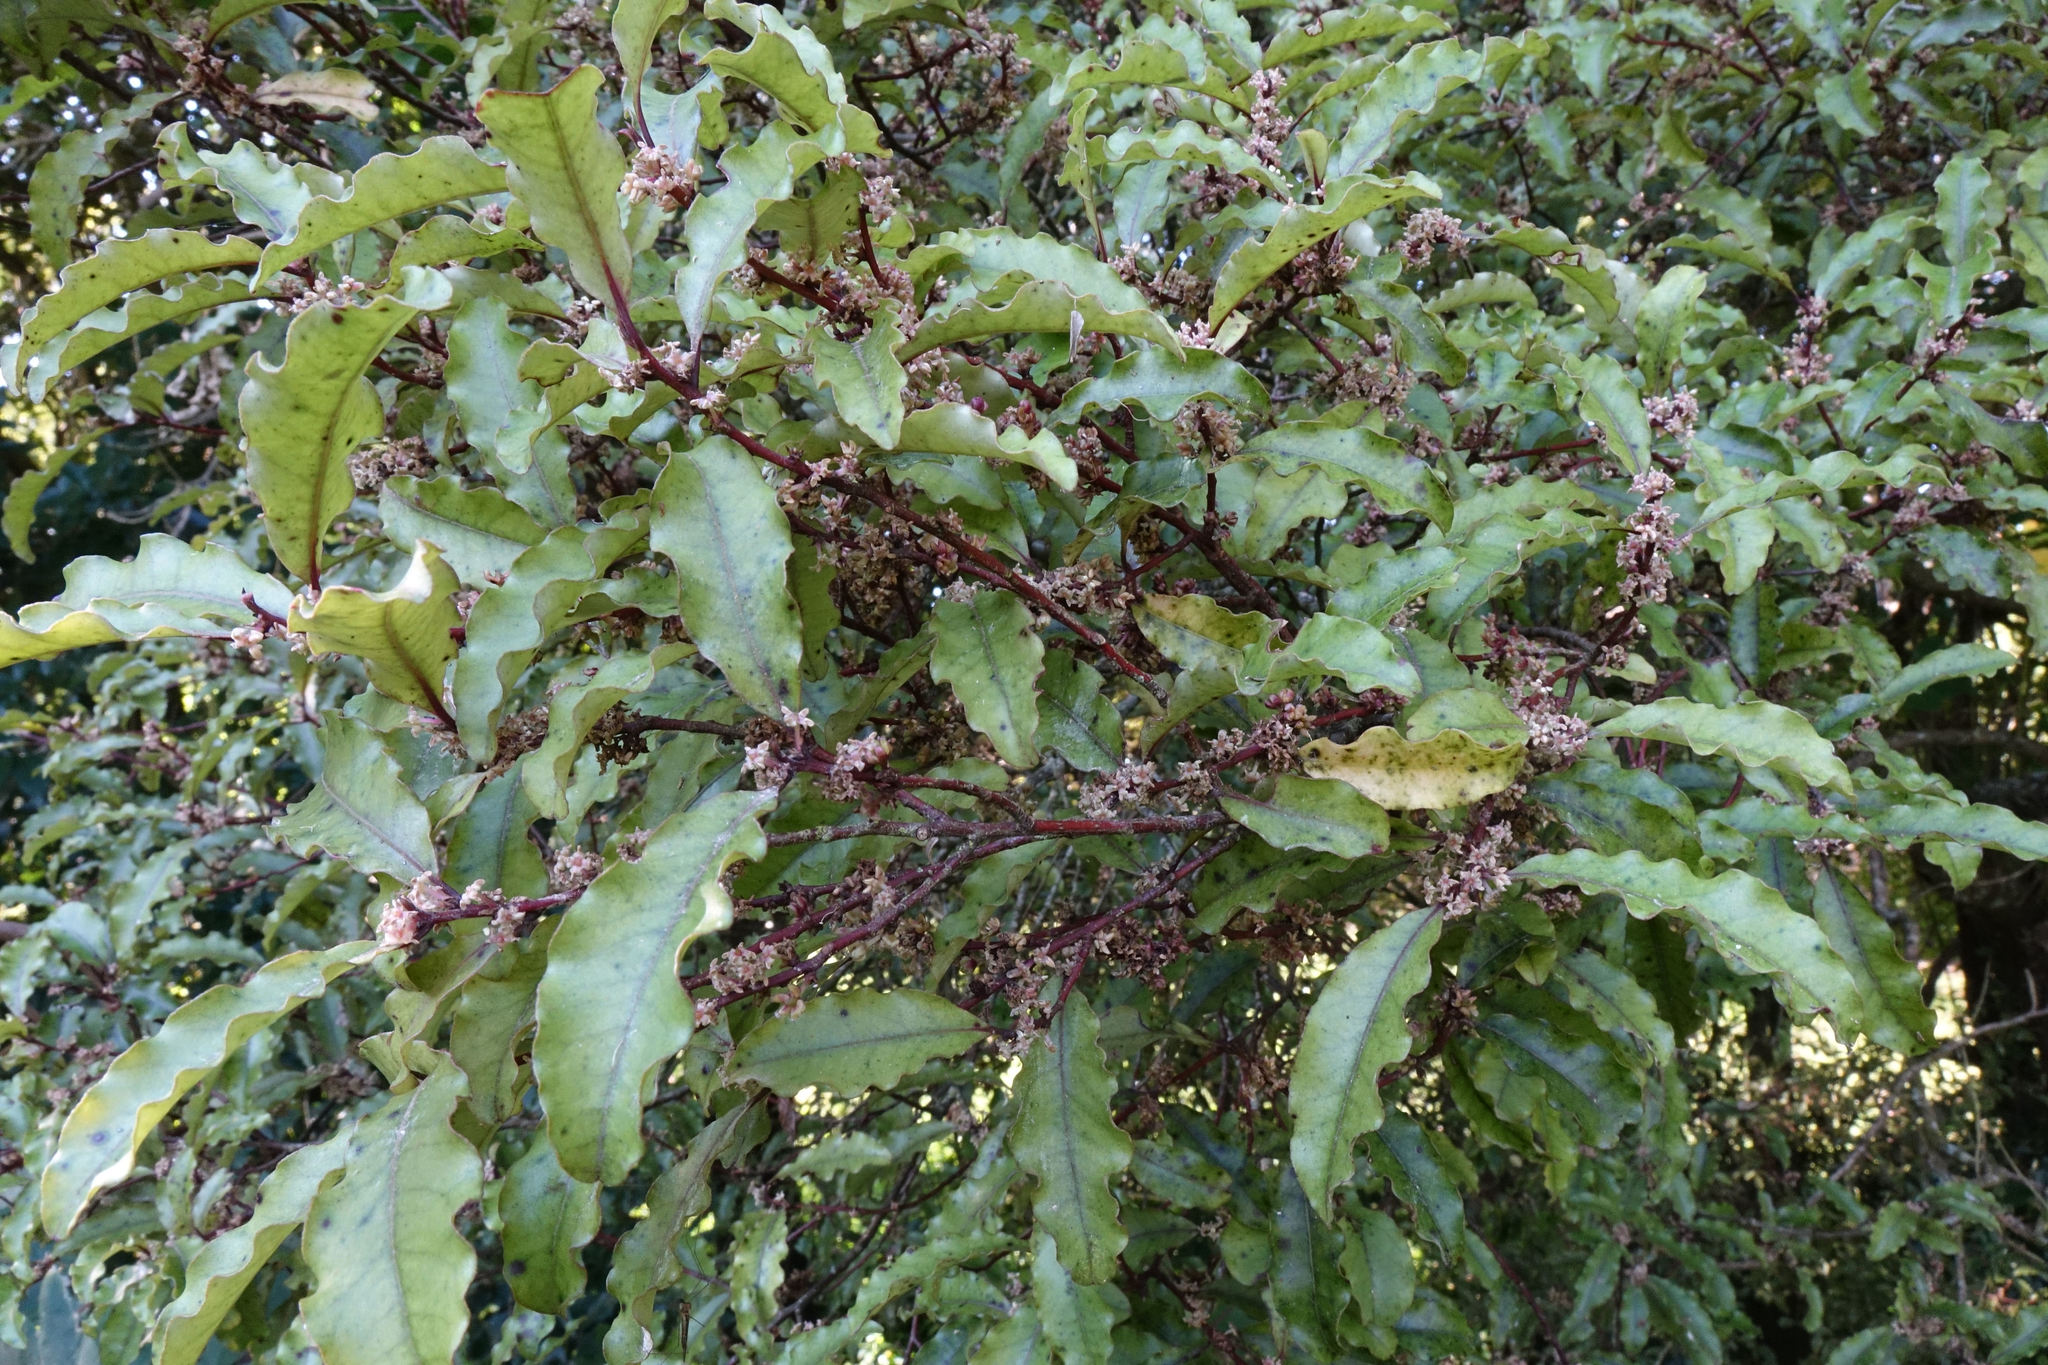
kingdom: Plantae
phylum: Tracheophyta
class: Magnoliopsida
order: Ericales
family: Primulaceae
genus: Myrsine
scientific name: Myrsine australis
